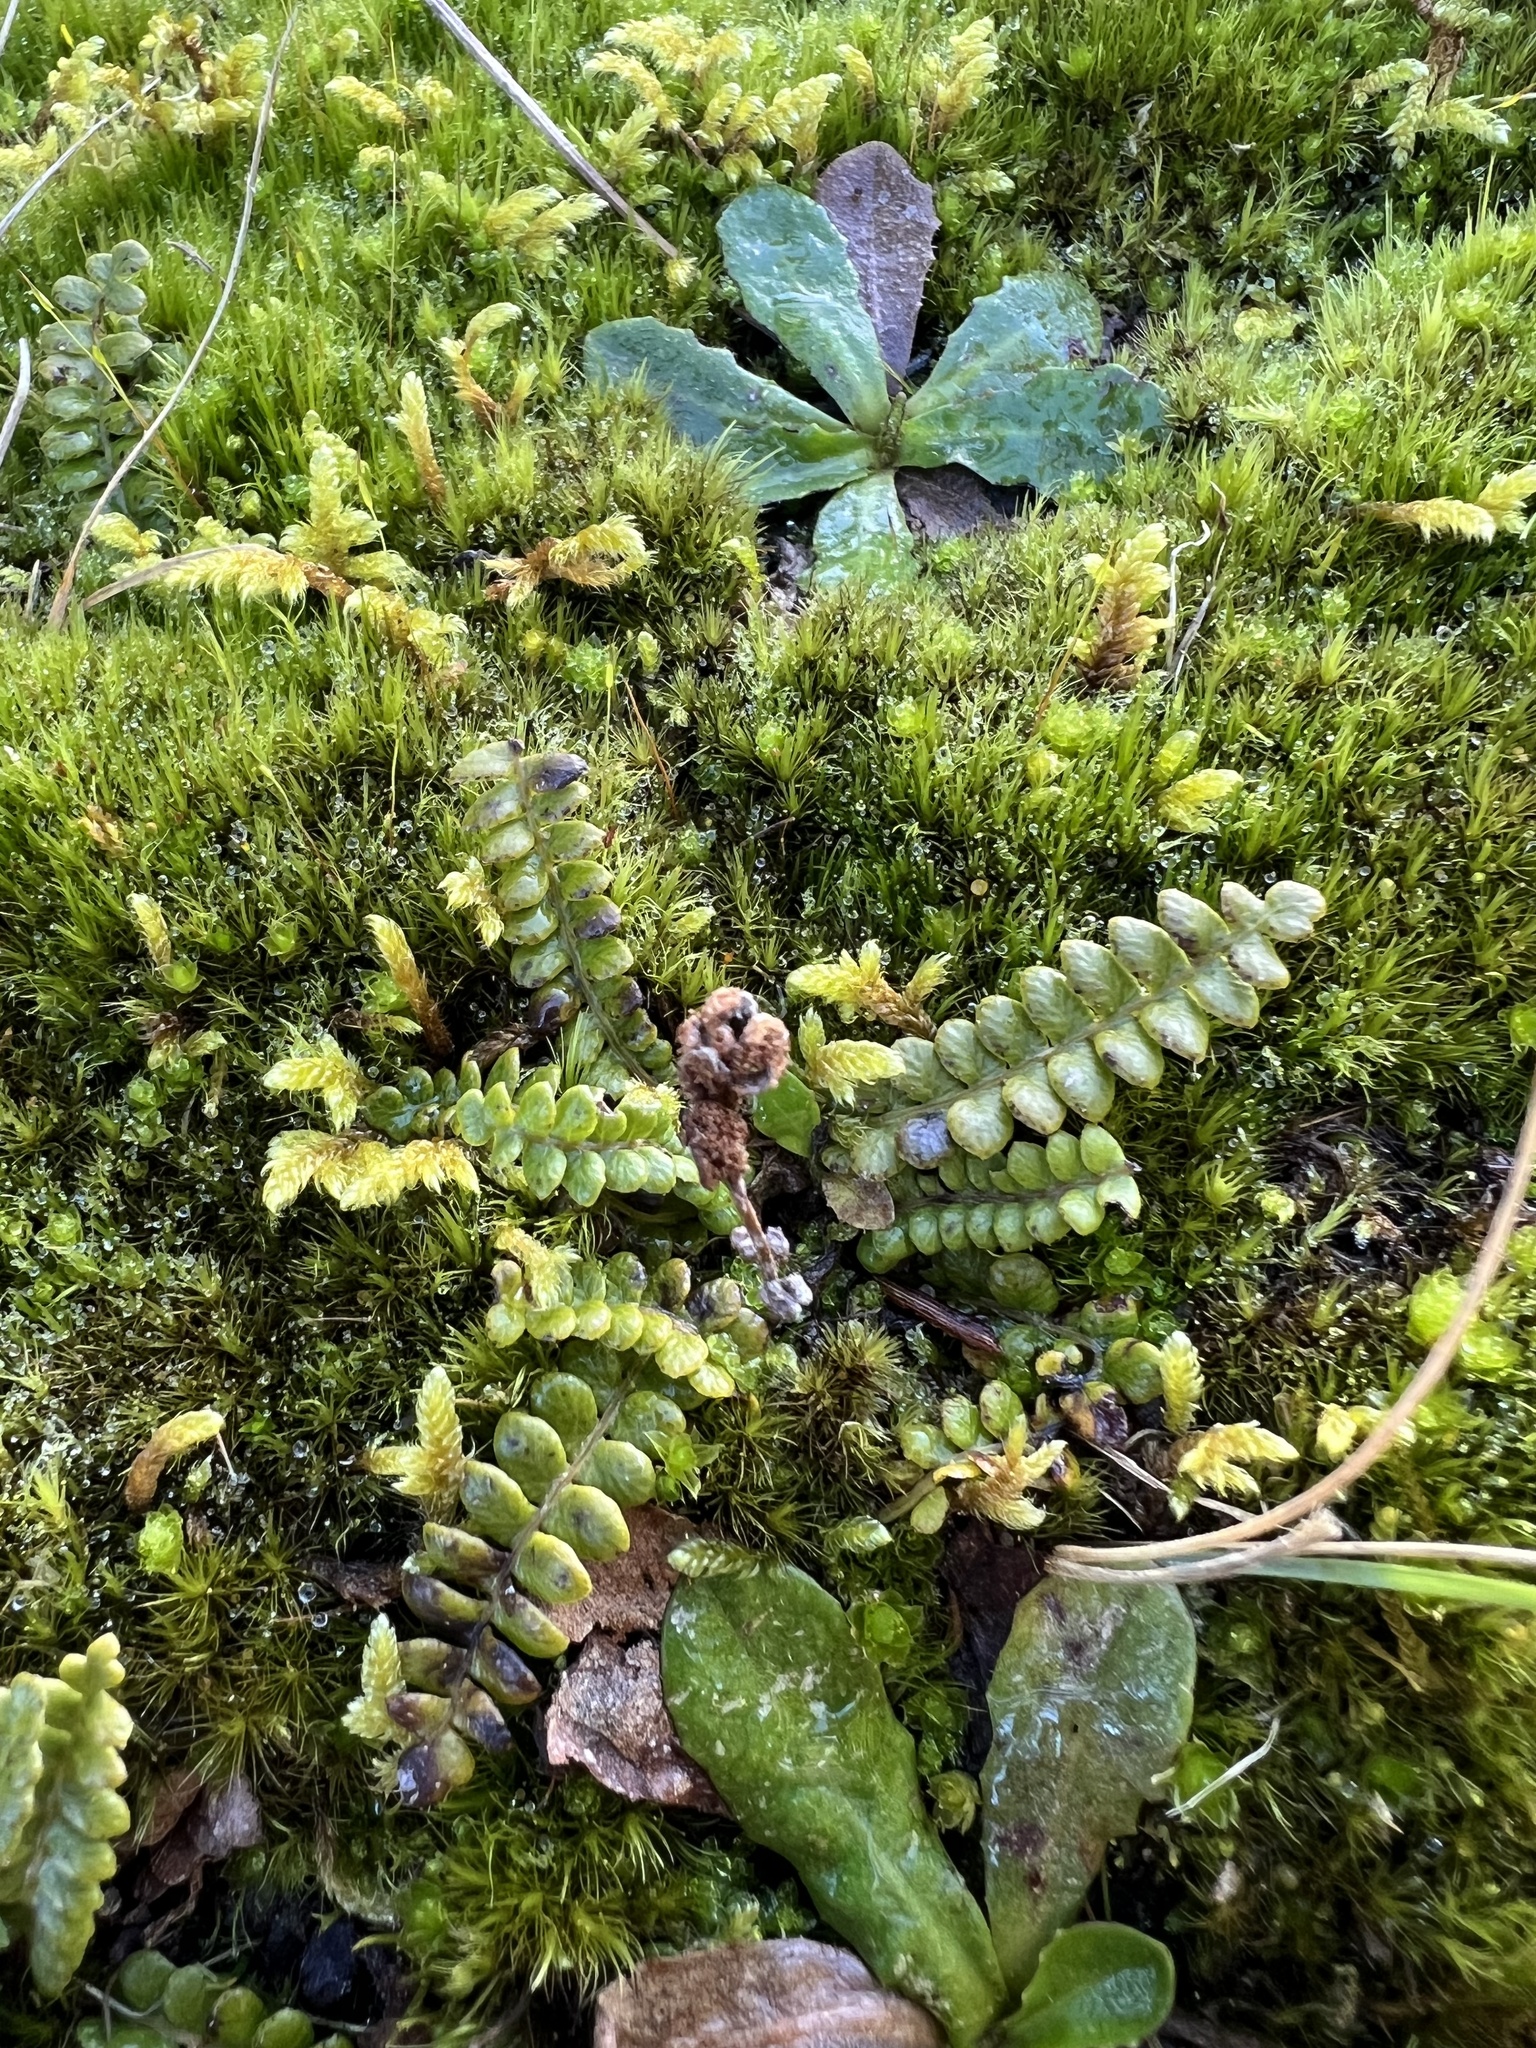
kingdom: Plantae
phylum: Tracheophyta
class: Polypodiopsida
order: Polypodiales
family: Blechnaceae
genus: Austroblechnum
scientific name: Austroblechnum penna-marina
